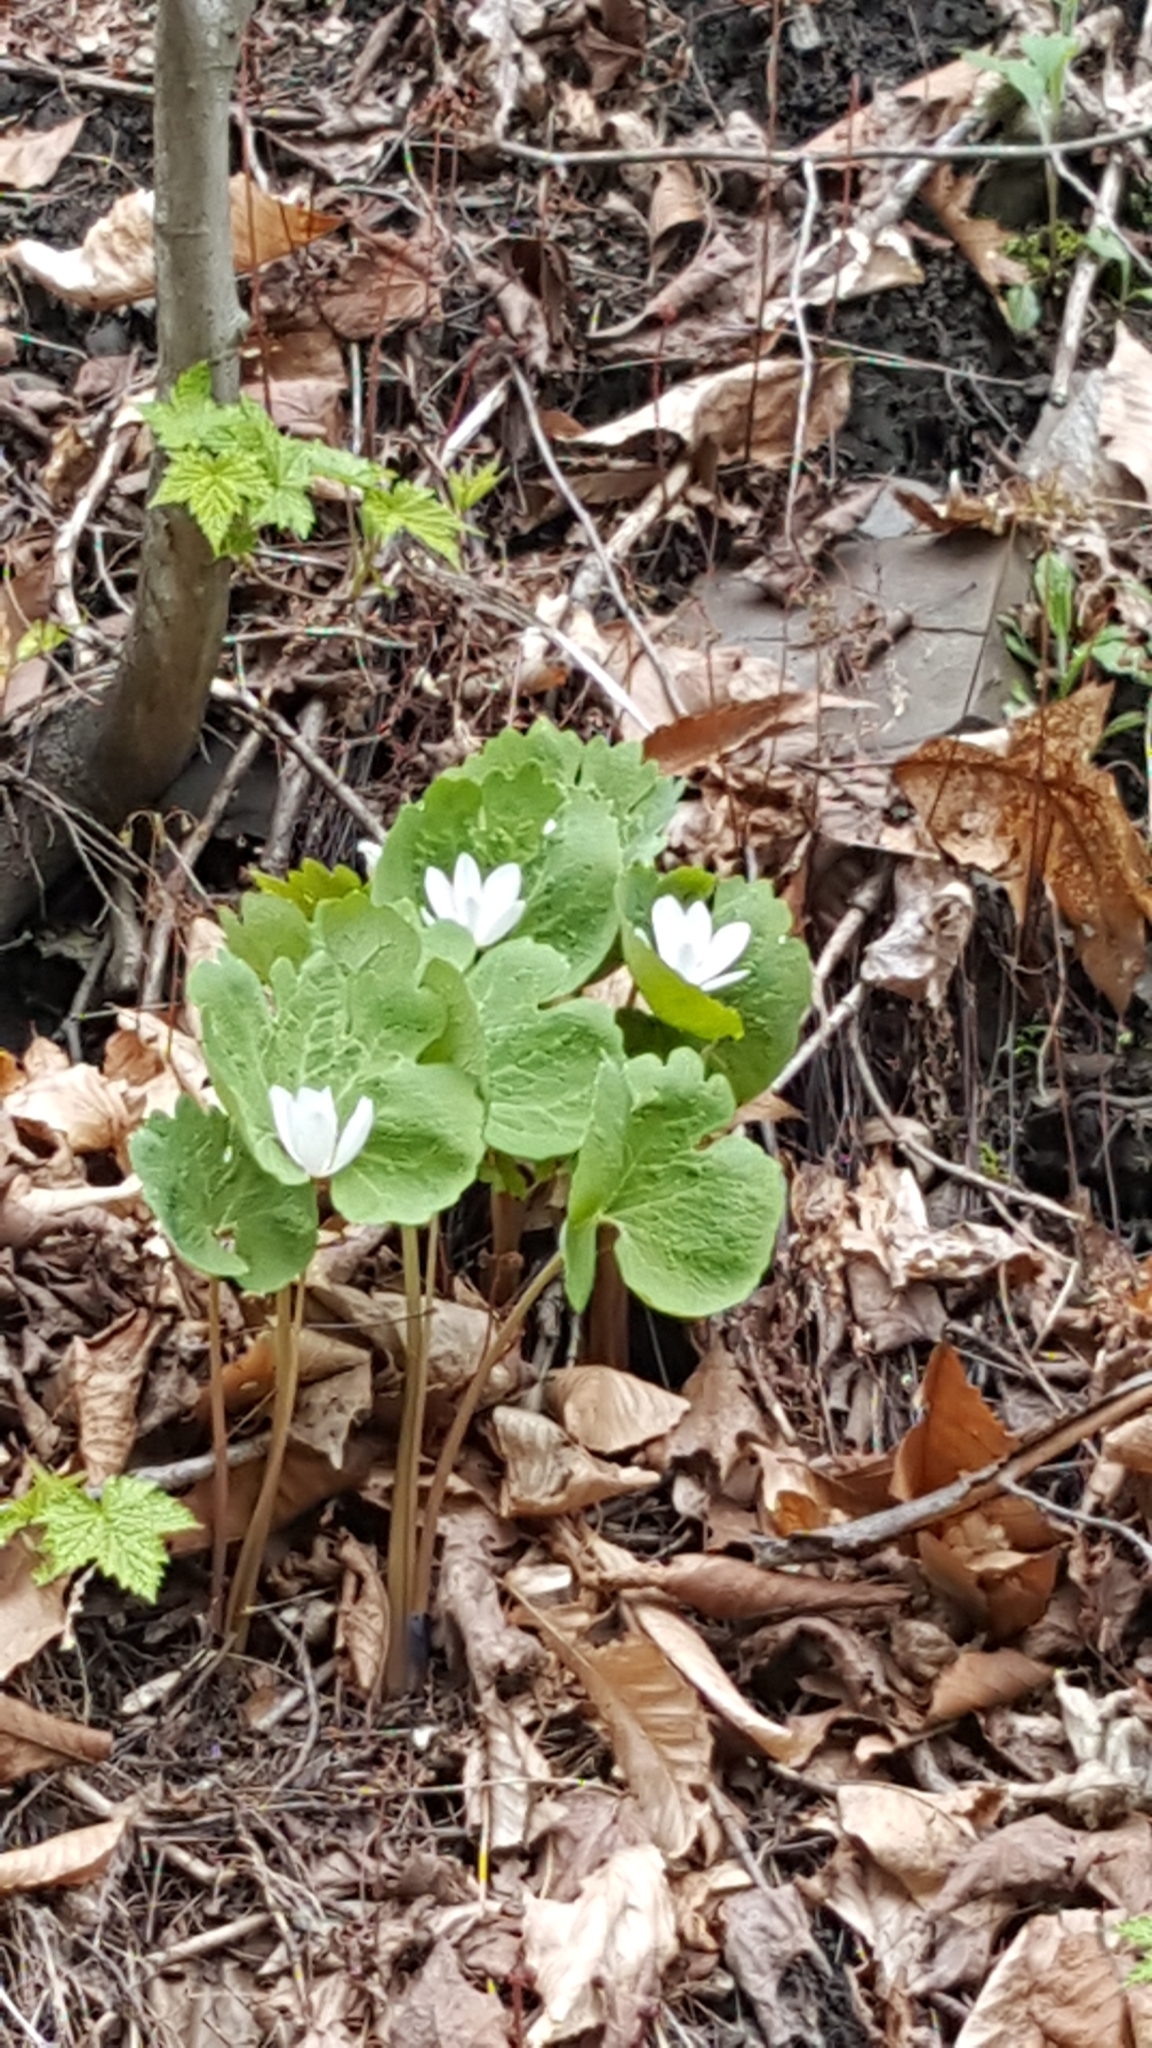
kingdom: Plantae
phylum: Tracheophyta
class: Magnoliopsida
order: Ranunculales
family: Papaveraceae
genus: Sanguinaria
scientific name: Sanguinaria canadensis
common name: Bloodroot
